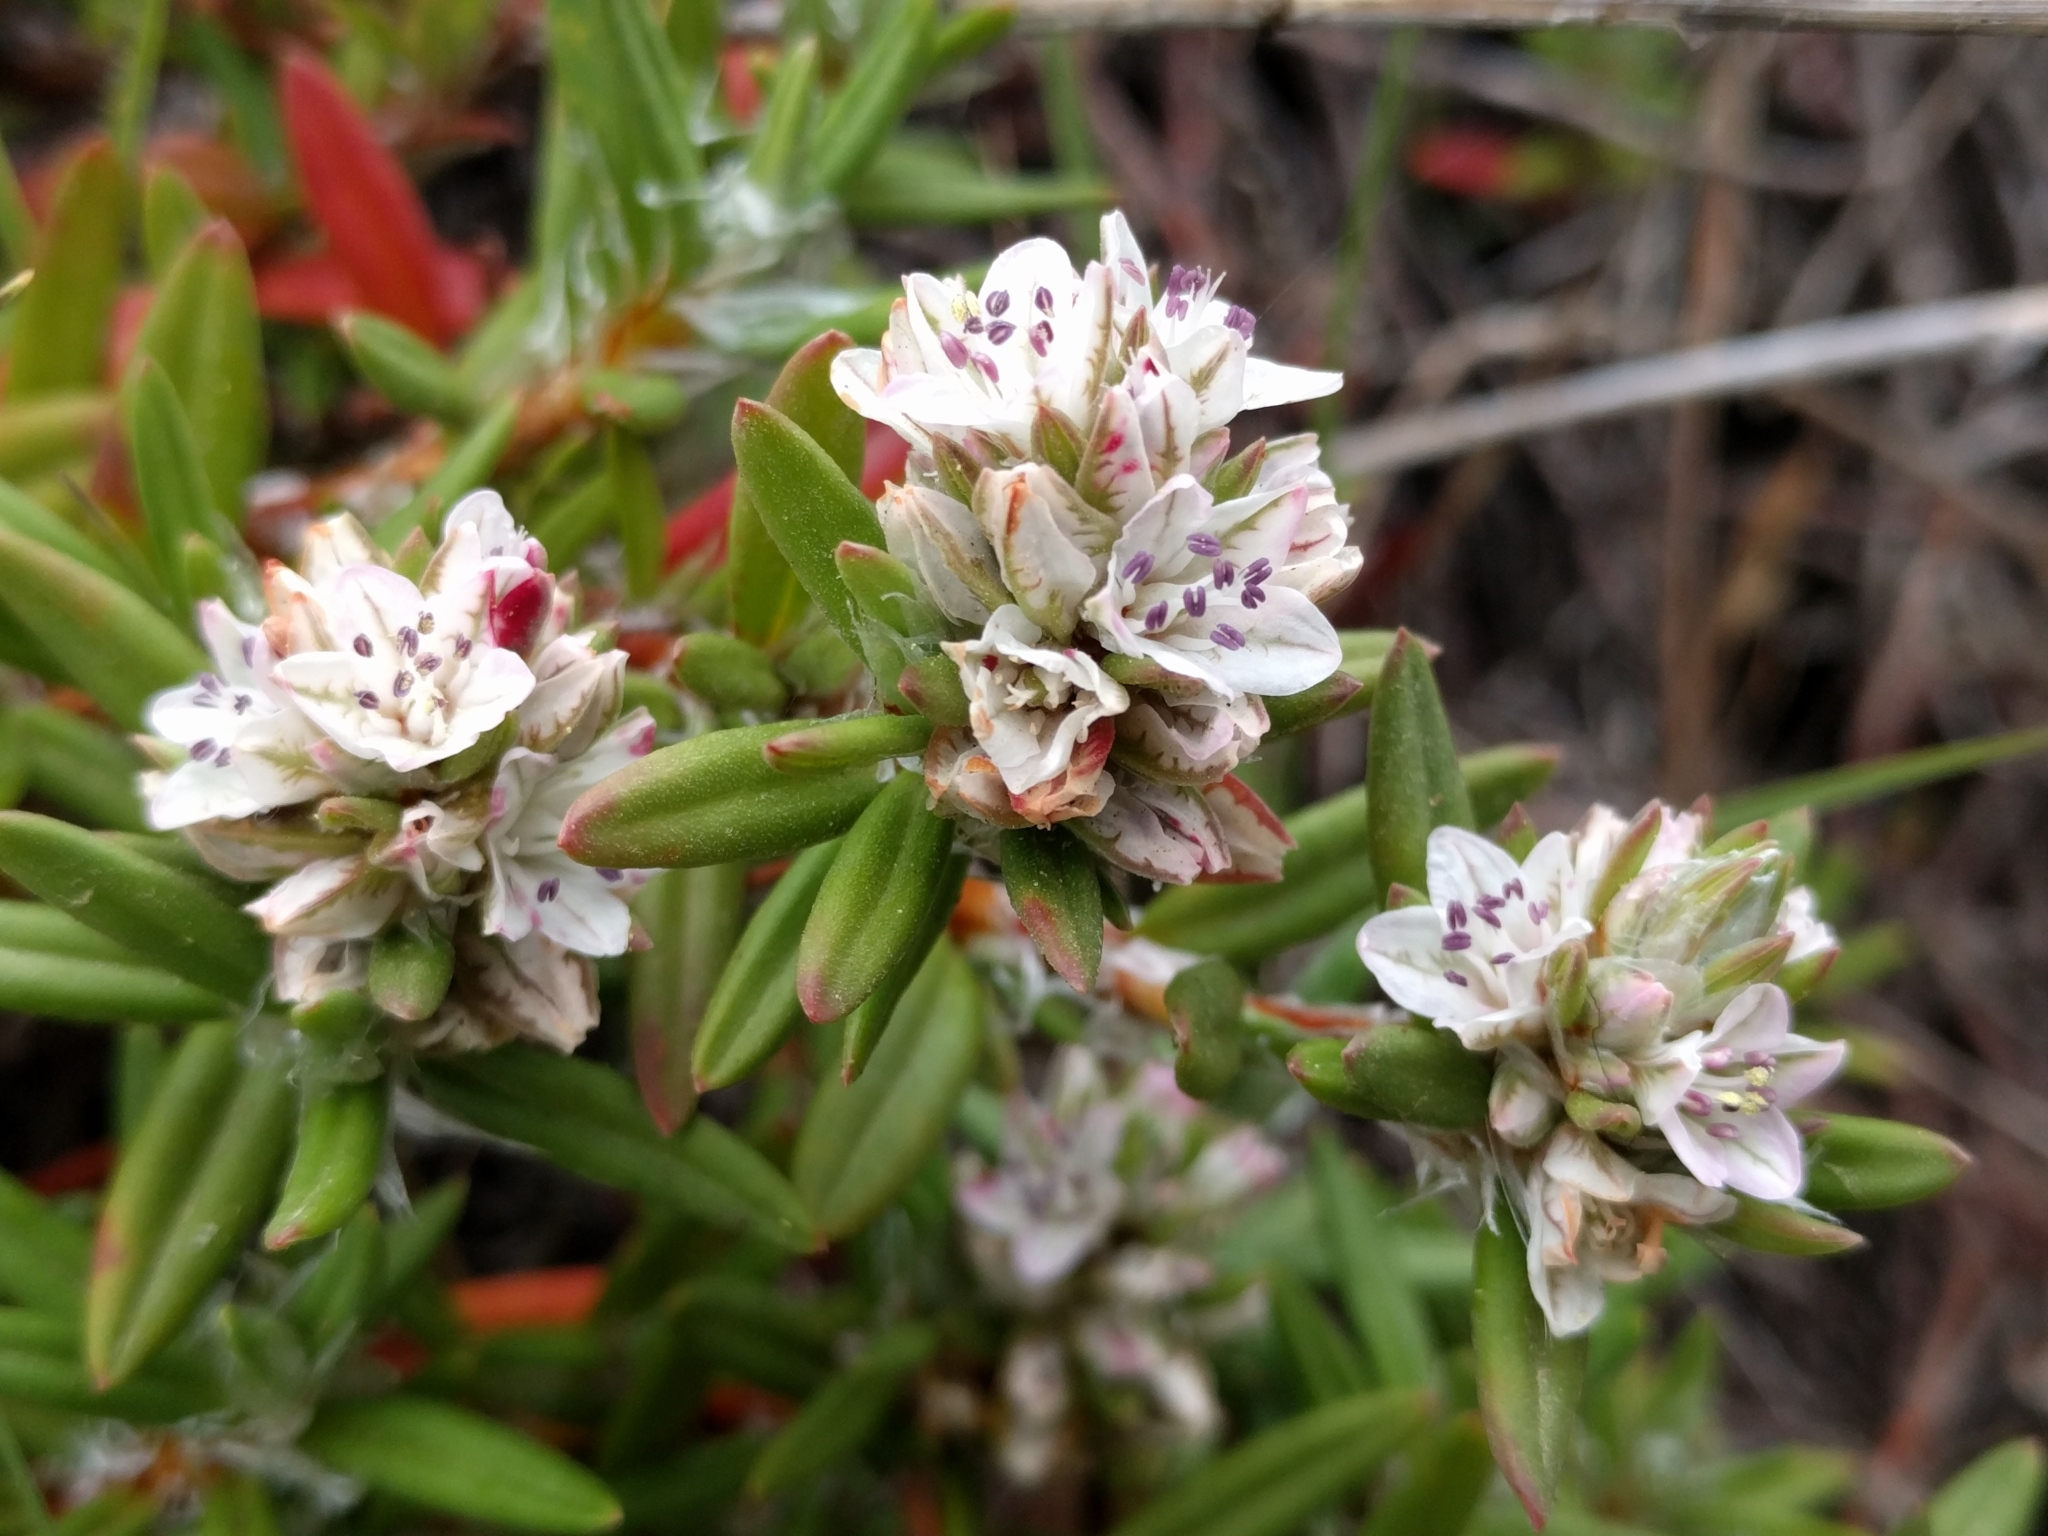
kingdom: Plantae
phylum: Tracheophyta
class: Magnoliopsida
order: Caryophyllales
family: Polygonaceae
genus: Polygonum
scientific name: Polygonum paronychia
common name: Dune knotweed
